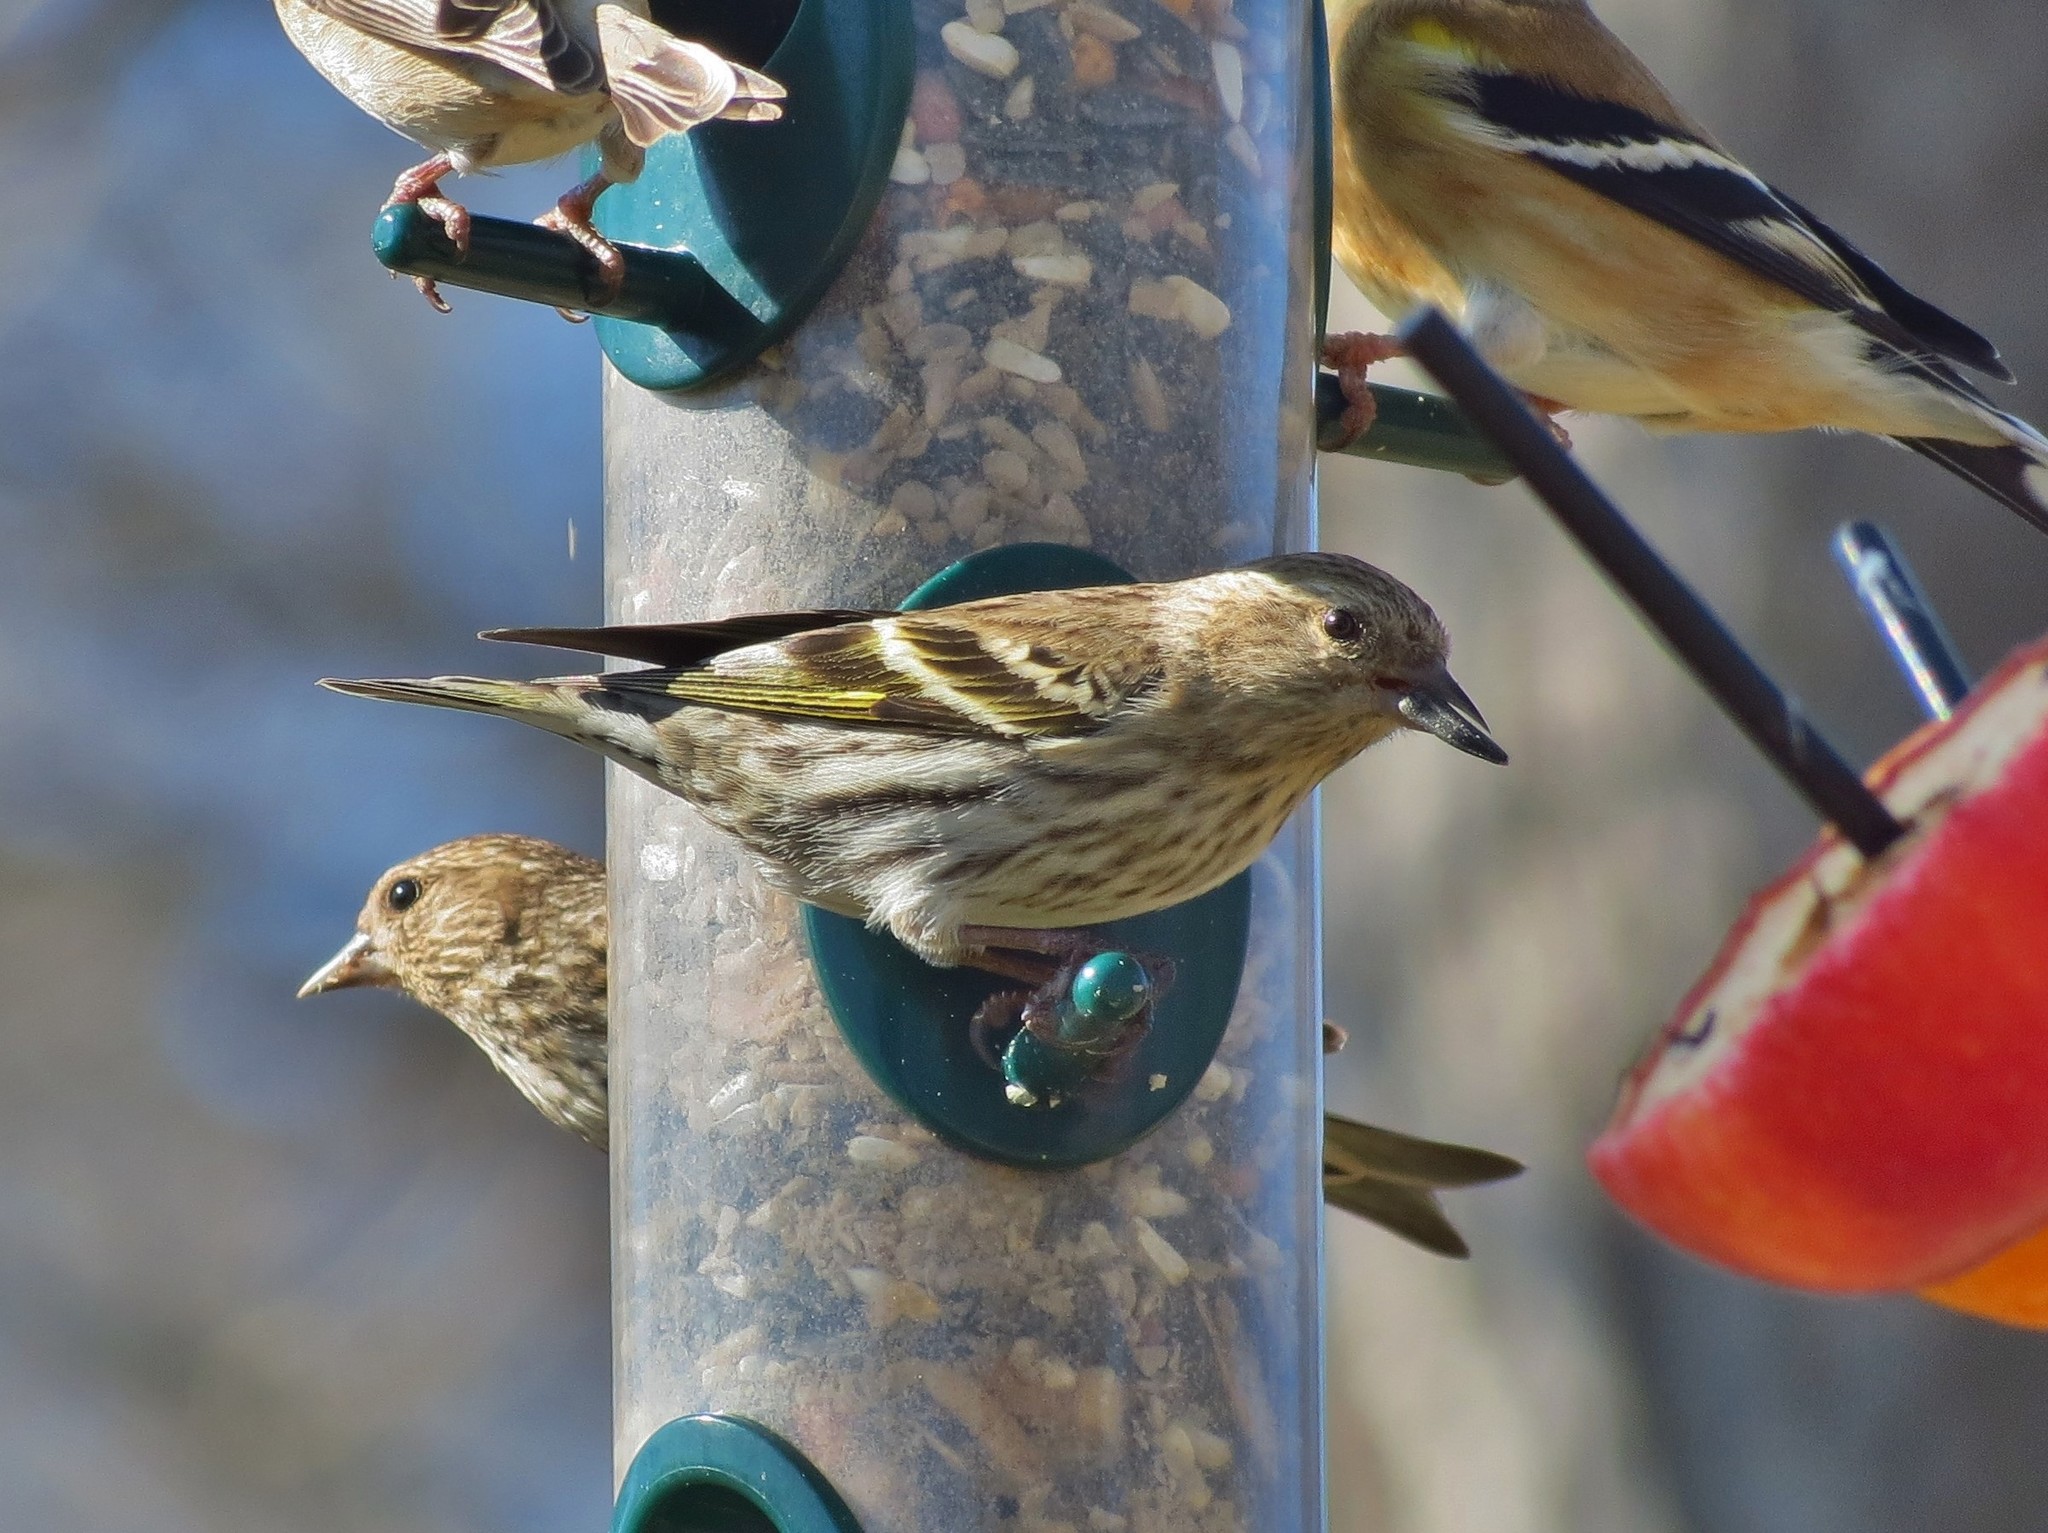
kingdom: Animalia
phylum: Chordata
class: Aves
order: Passeriformes
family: Fringillidae
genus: Spinus
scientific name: Spinus pinus
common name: Pine siskin
